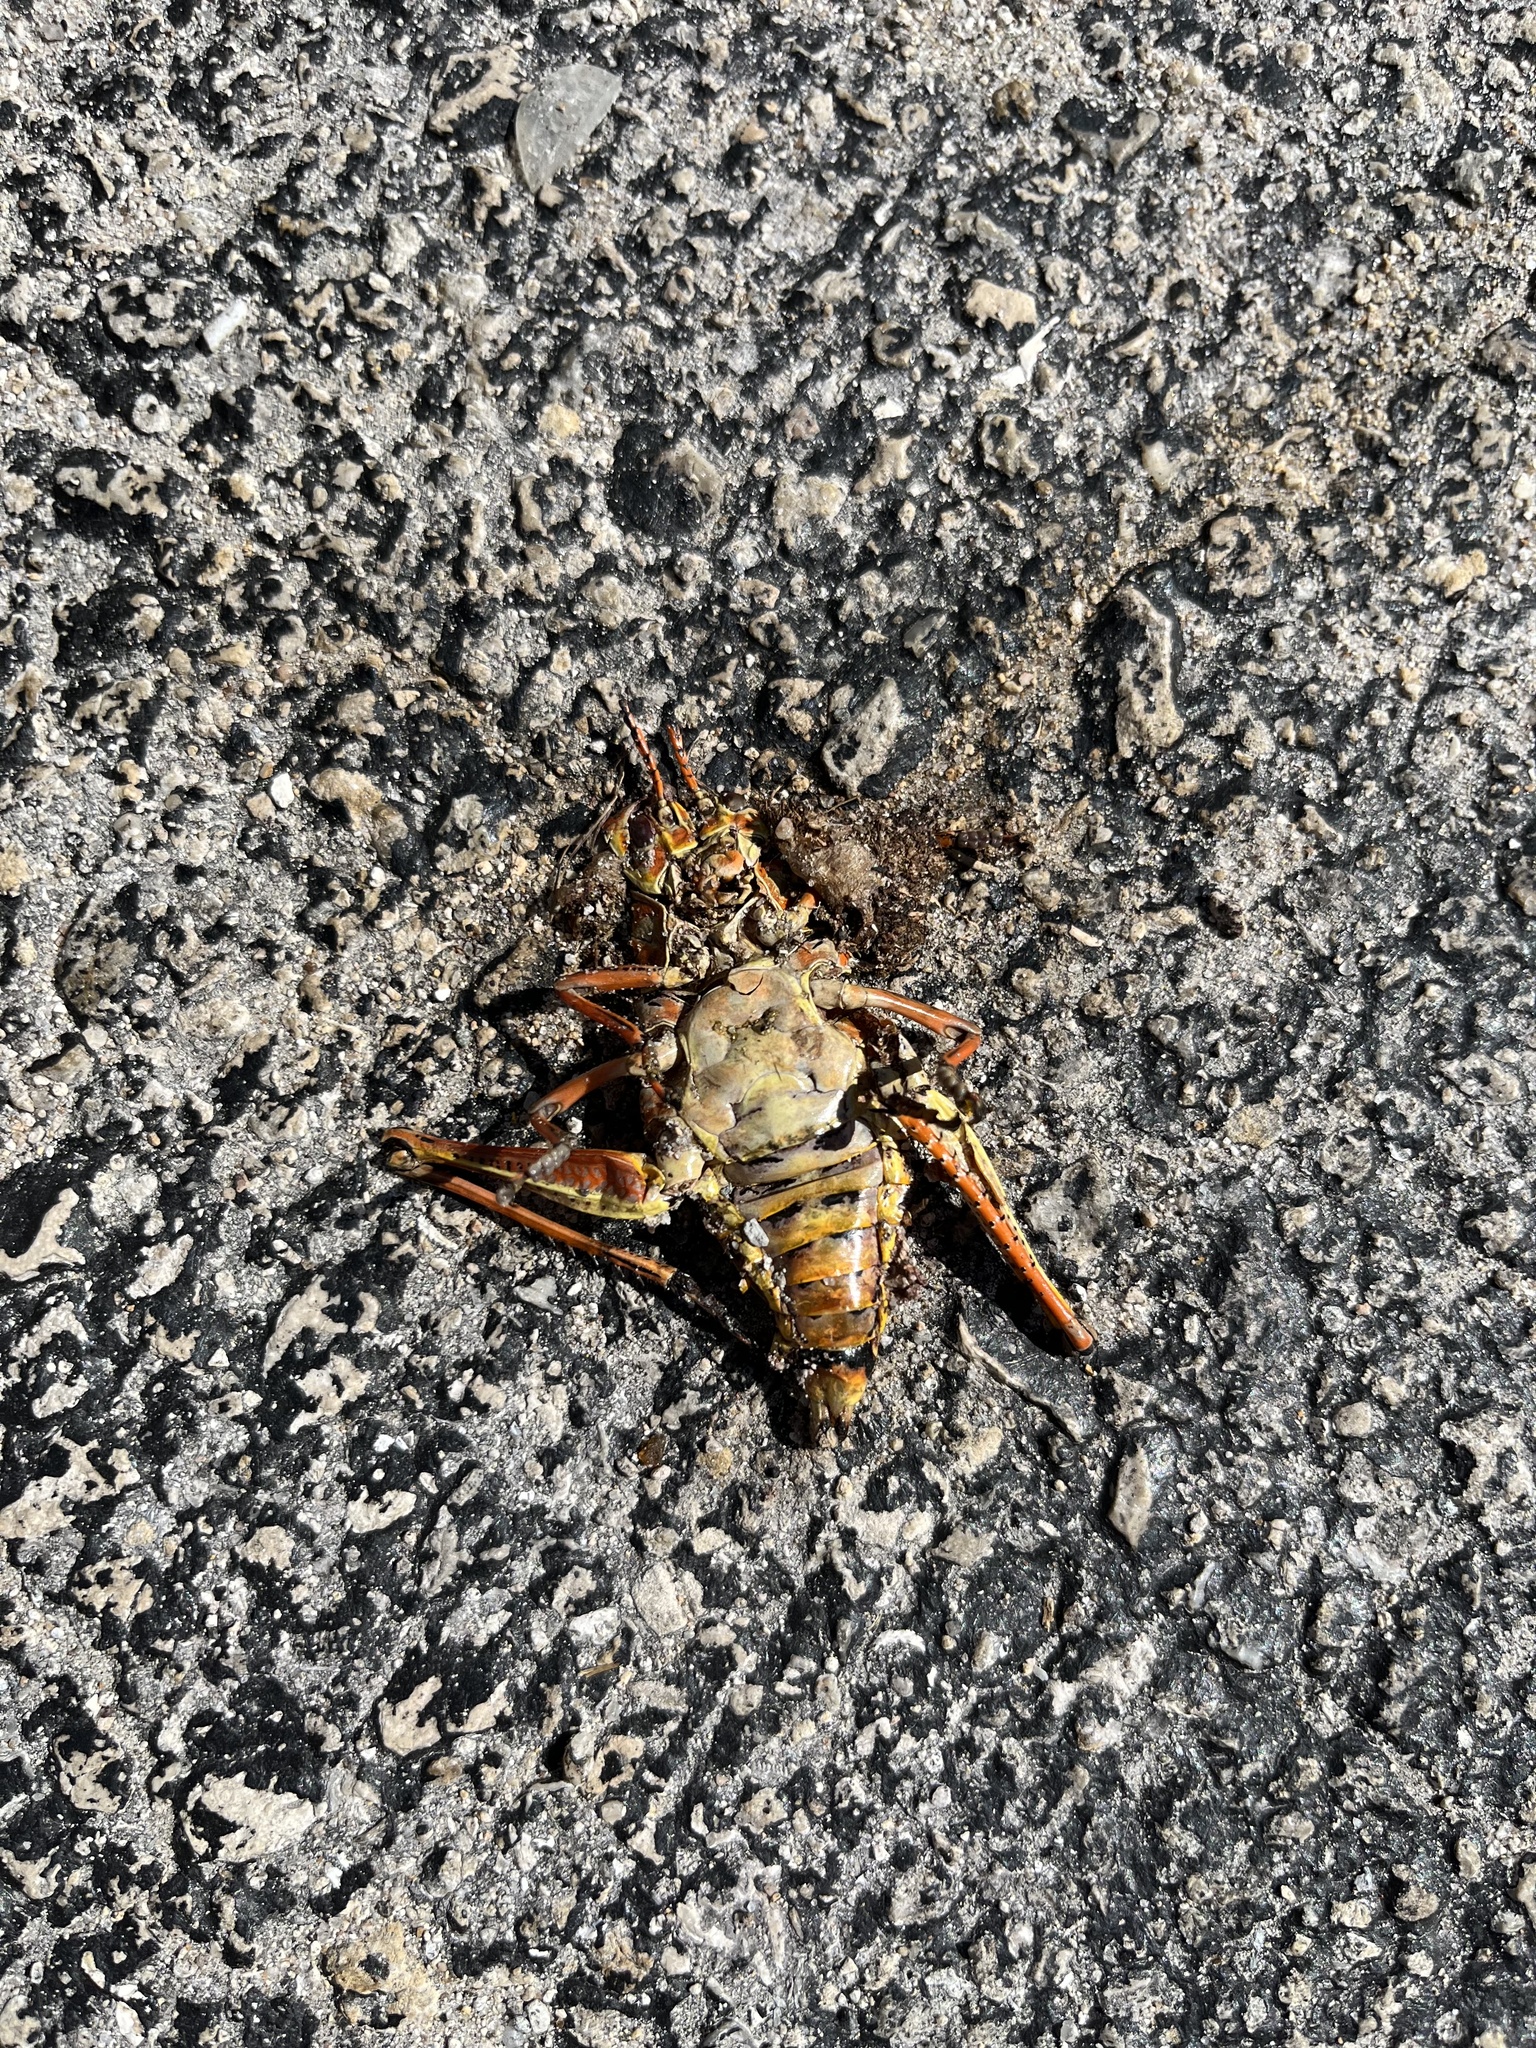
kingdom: Animalia
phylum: Arthropoda
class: Insecta
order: Orthoptera
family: Romaleidae
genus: Romalea
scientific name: Romalea microptera
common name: Eastern lubber grasshopper
